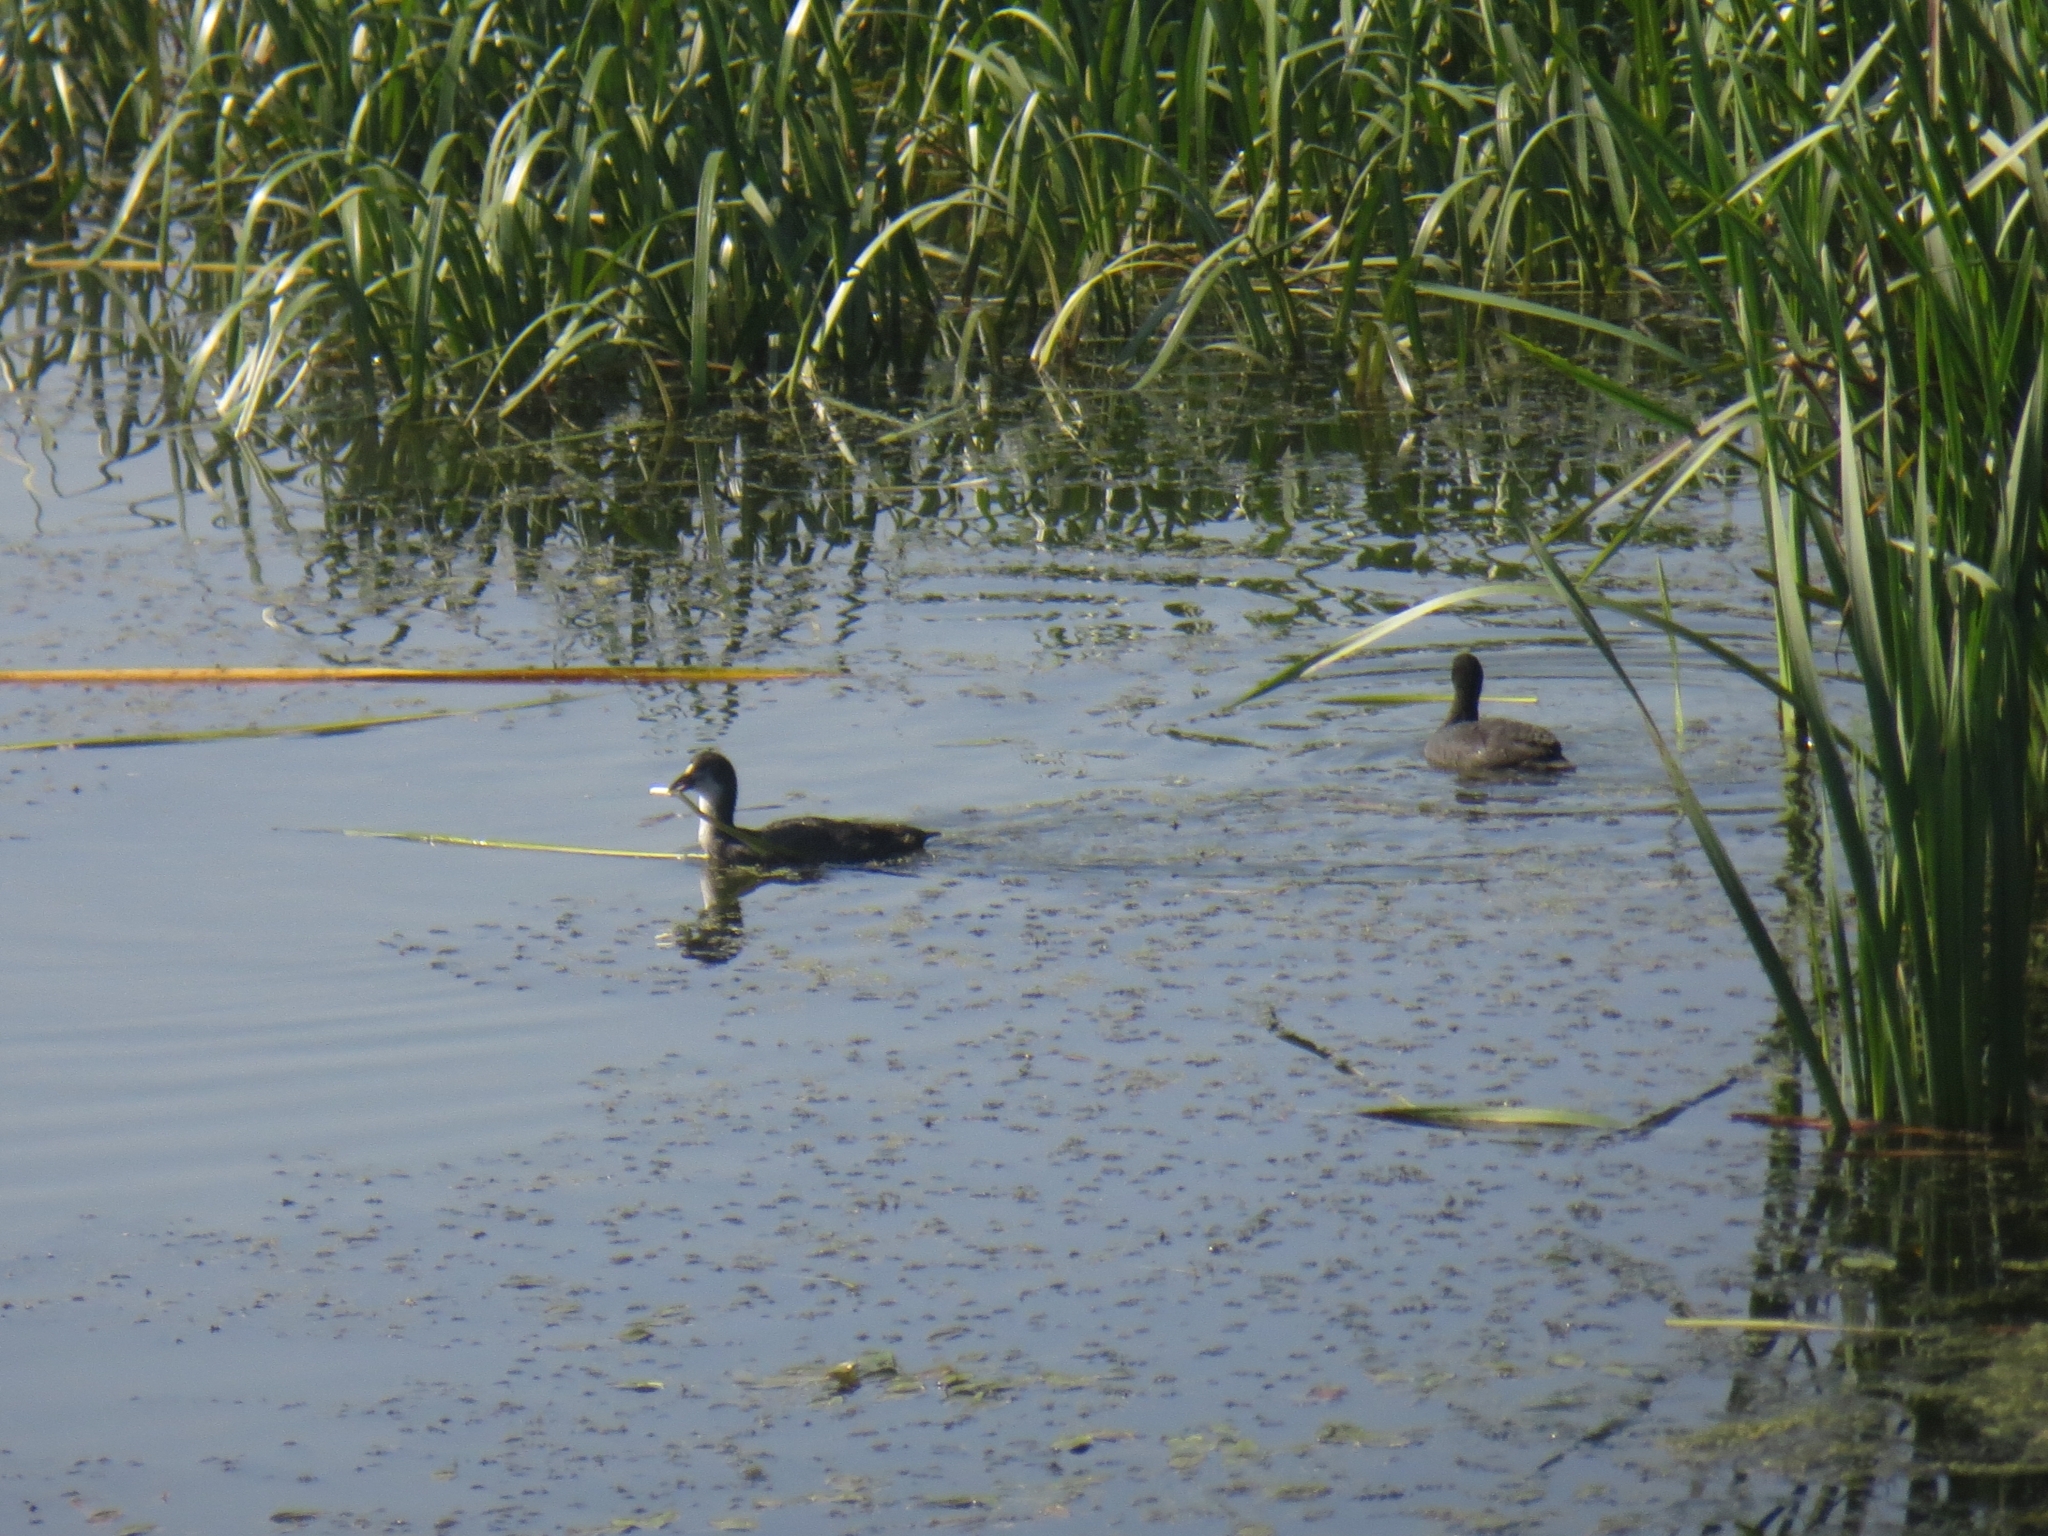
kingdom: Animalia
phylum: Chordata
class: Aves
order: Gruiformes
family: Rallidae
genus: Fulica
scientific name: Fulica atra
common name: Eurasian coot
